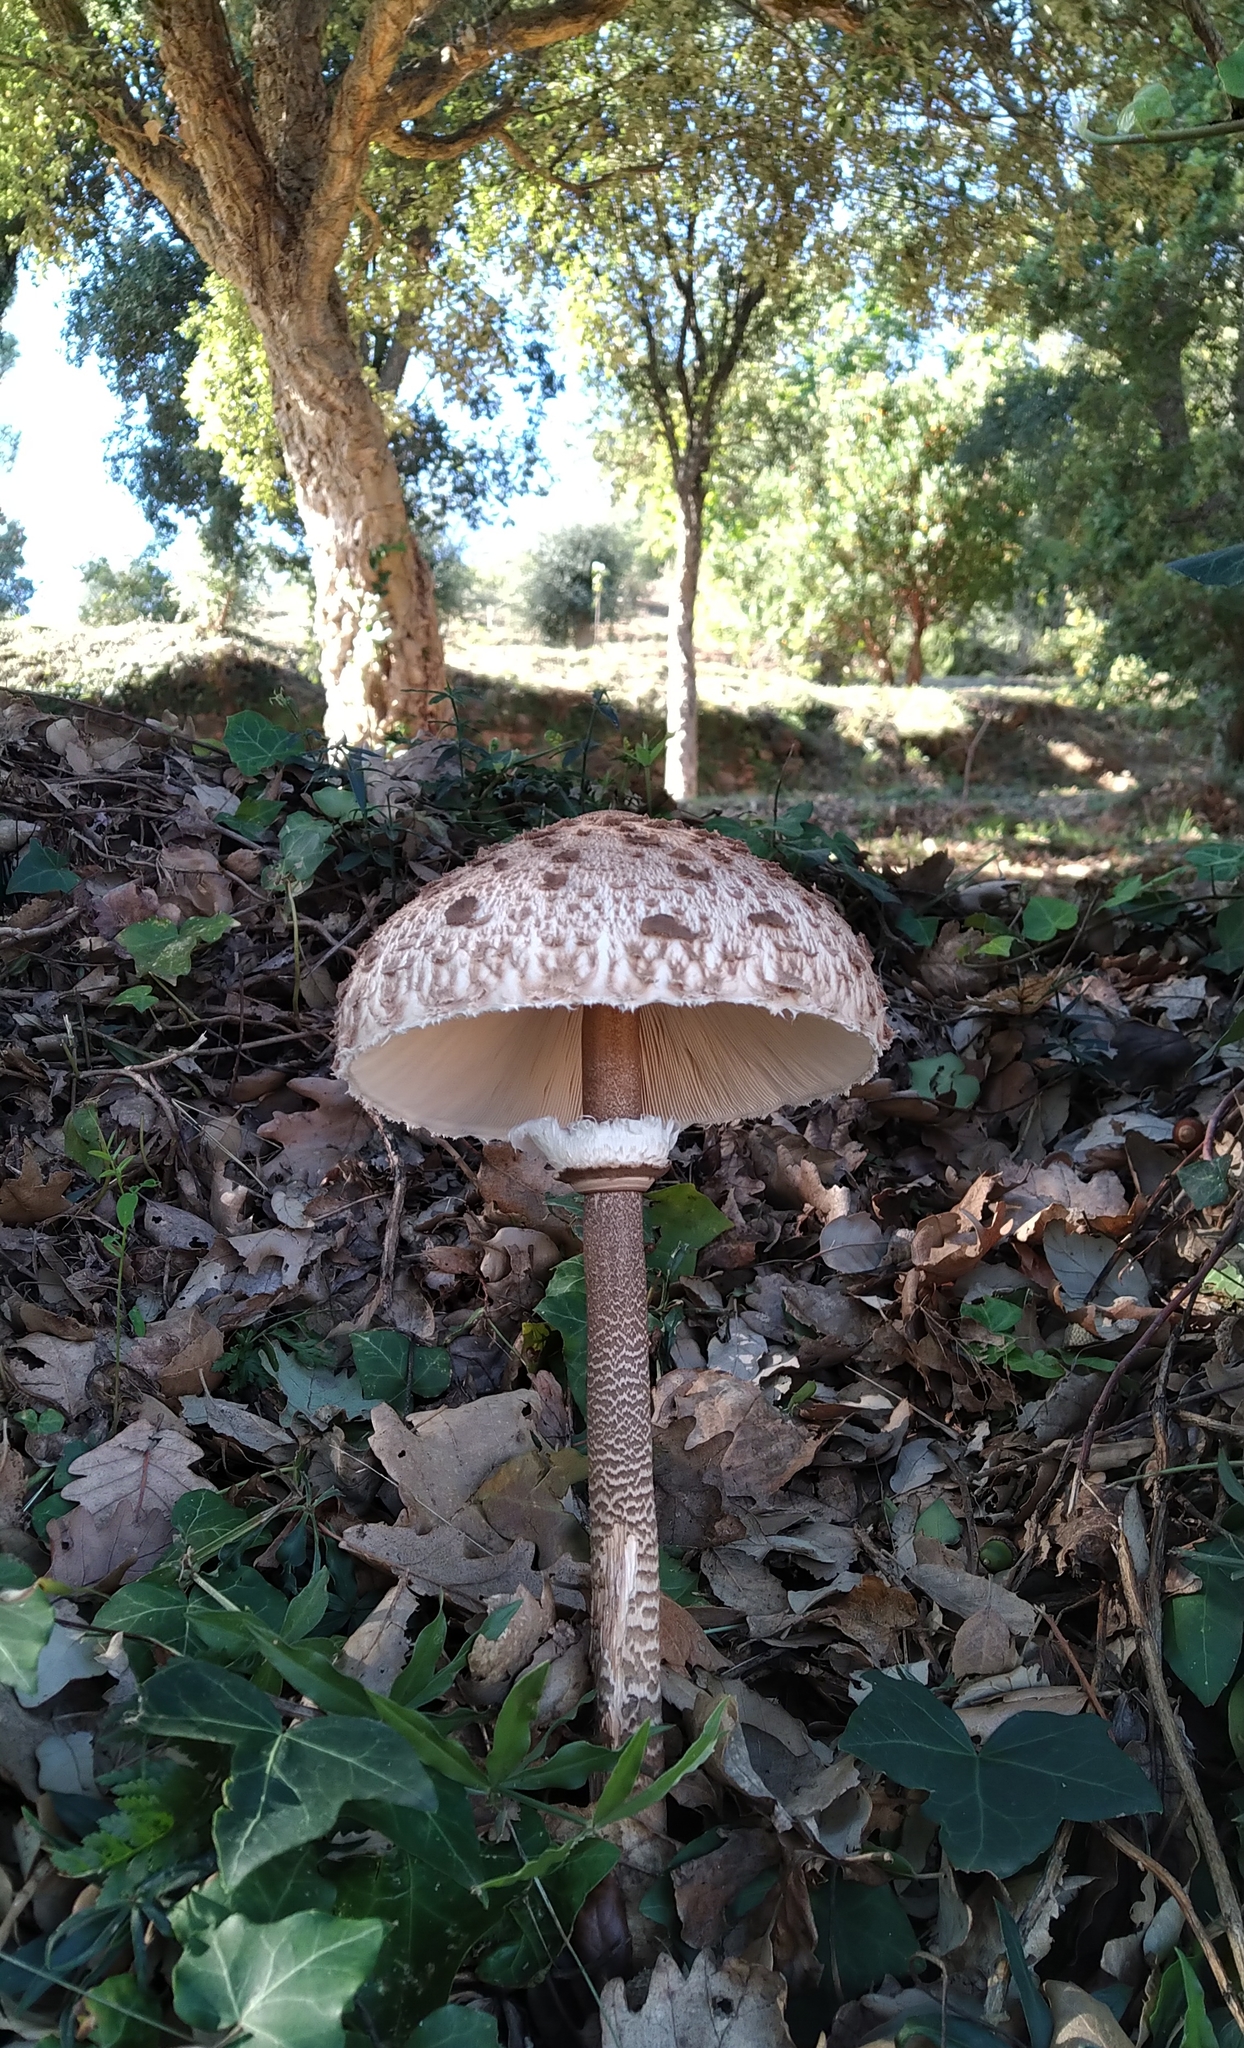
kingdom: Fungi
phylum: Basidiomycota
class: Agaricomycetes
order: Agaricales
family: Agaricaceae
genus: Macrolepiota
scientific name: Macrolepiota procera
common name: Parasol
